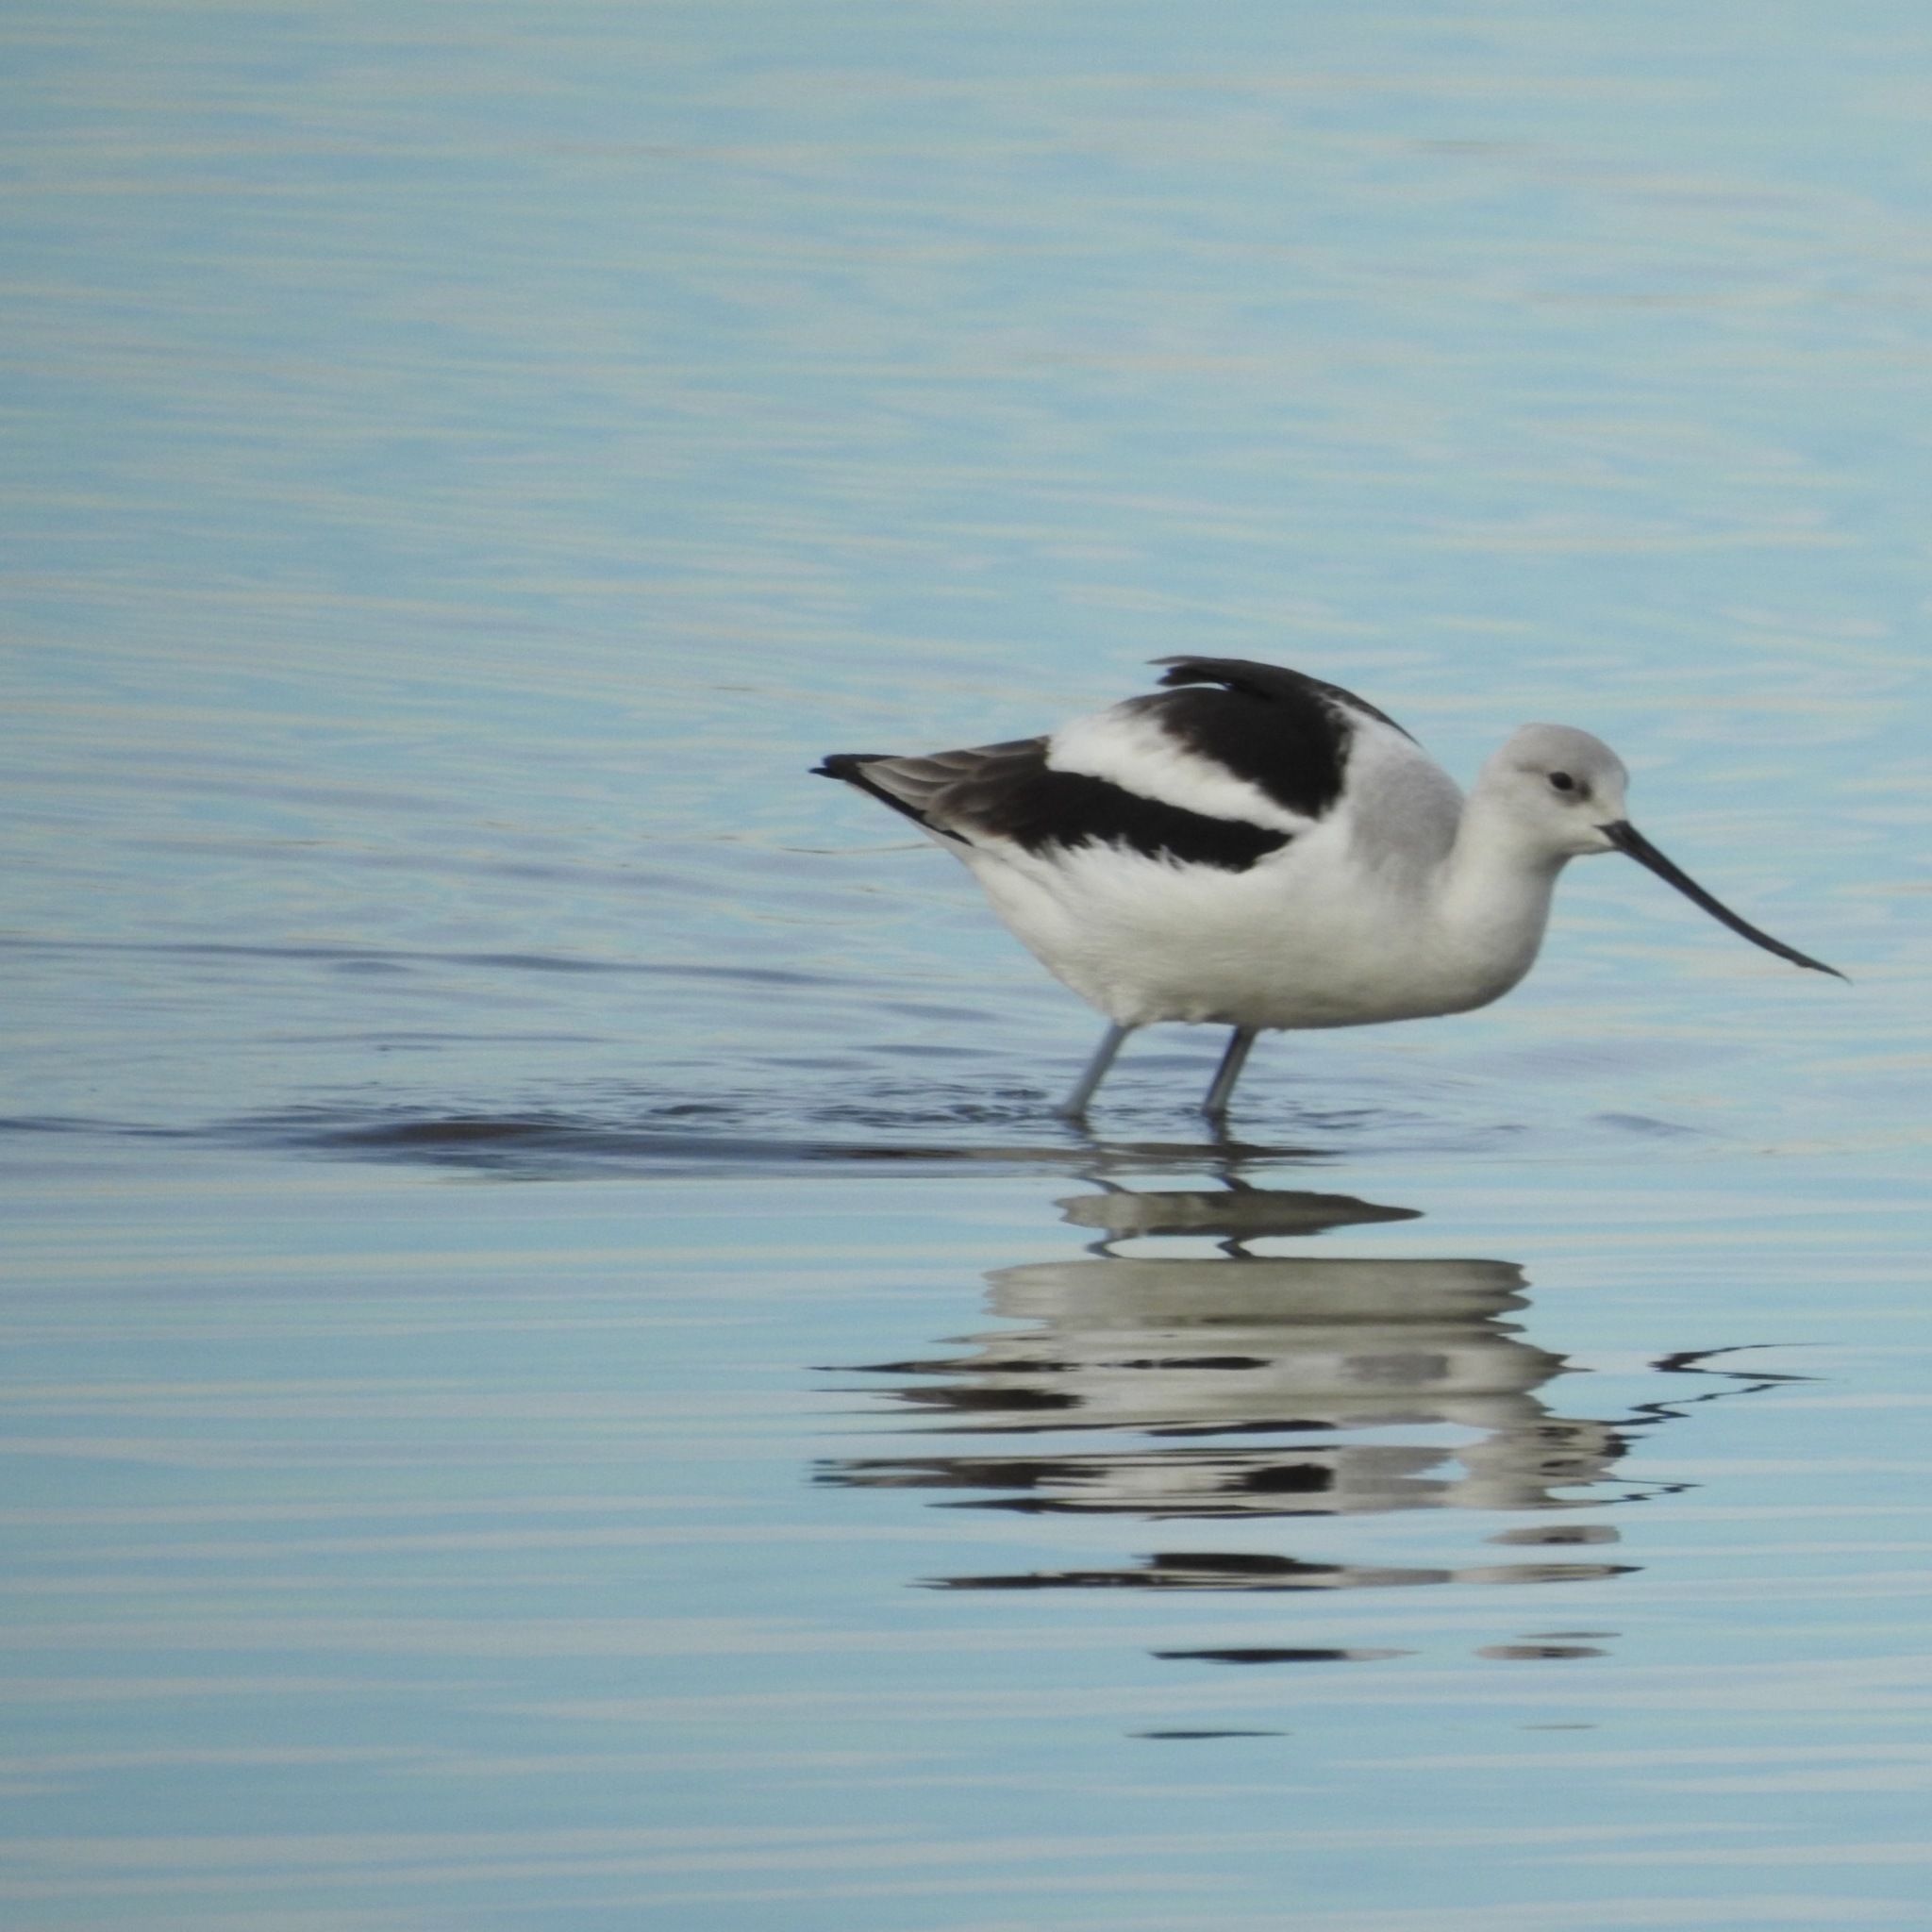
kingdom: Animalia
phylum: Chordata
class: Aves
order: Charadriiformes
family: Recurvirostridae
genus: Recurvirostra
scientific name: Recurvirostra americana
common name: American avocet
